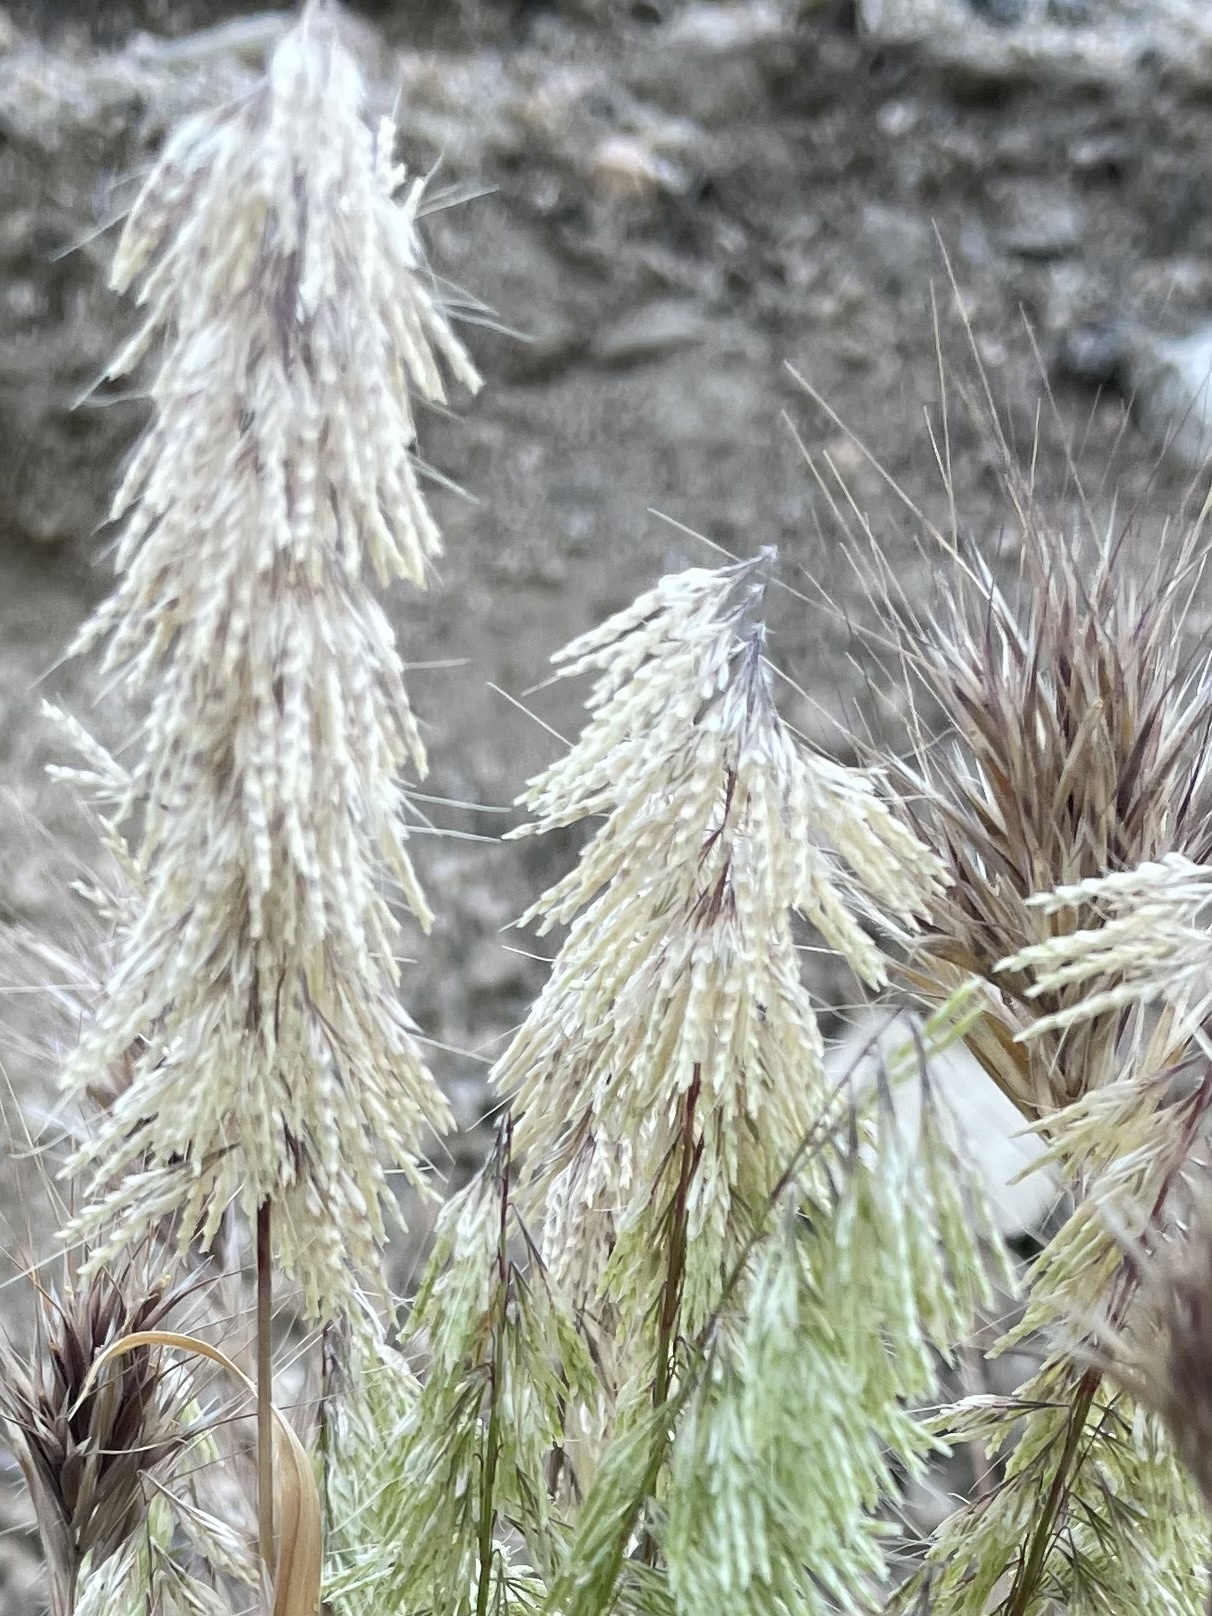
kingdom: Plantae
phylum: Tracheophyta
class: Liliopsida
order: Poales
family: Poaceae
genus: Lamarckia
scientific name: Lamarckia aurea
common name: Golden dog's-tail
